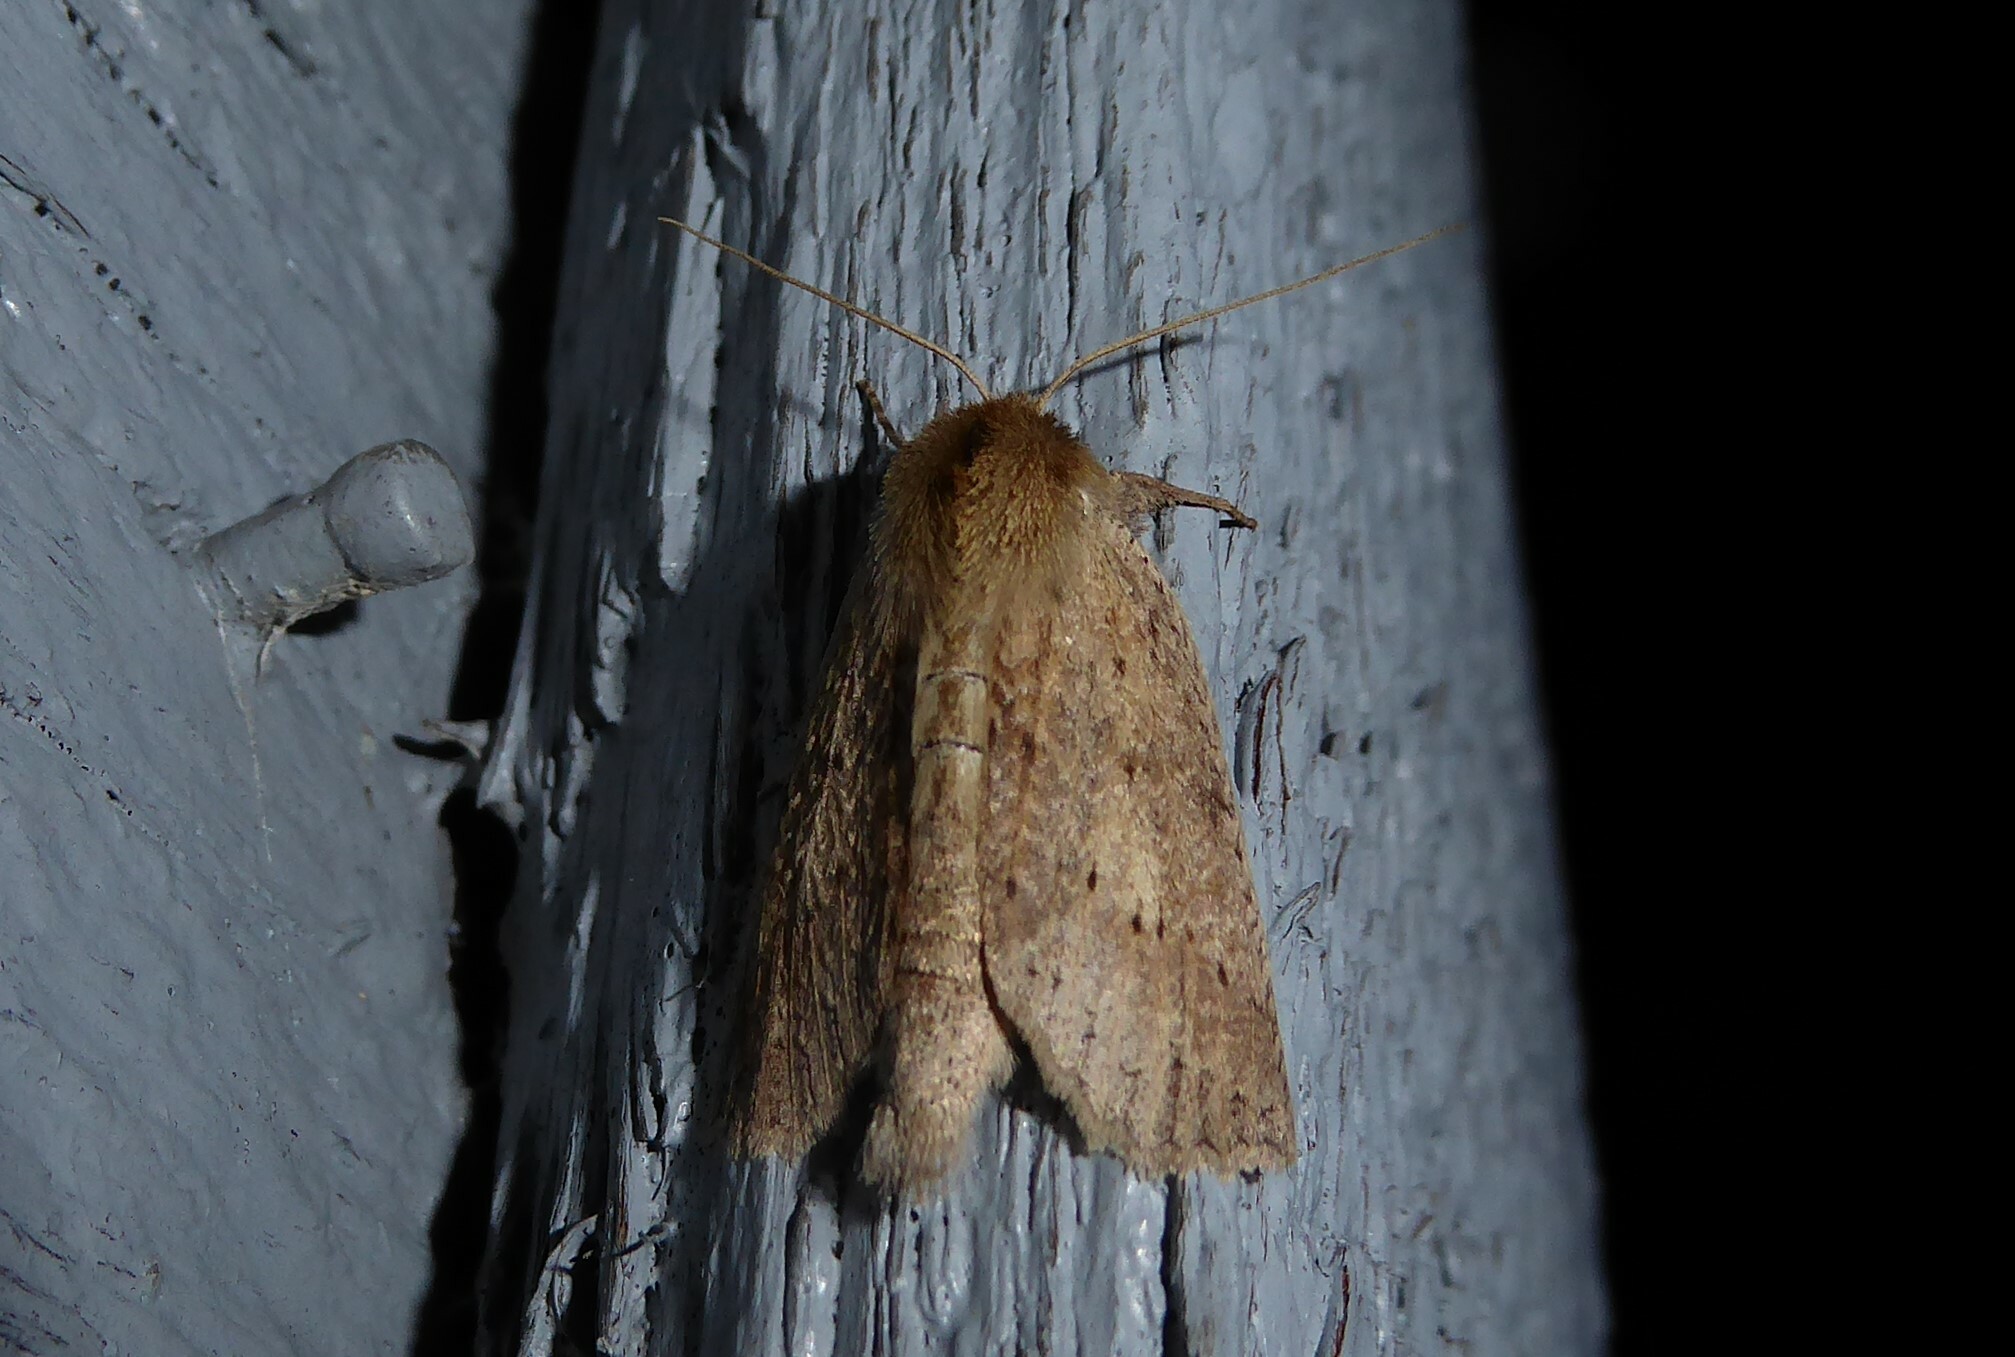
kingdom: Animalia
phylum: Arthropoda
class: Insecta
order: Lepidoptera
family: Geometridae
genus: Declana
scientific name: Declana leptomera
